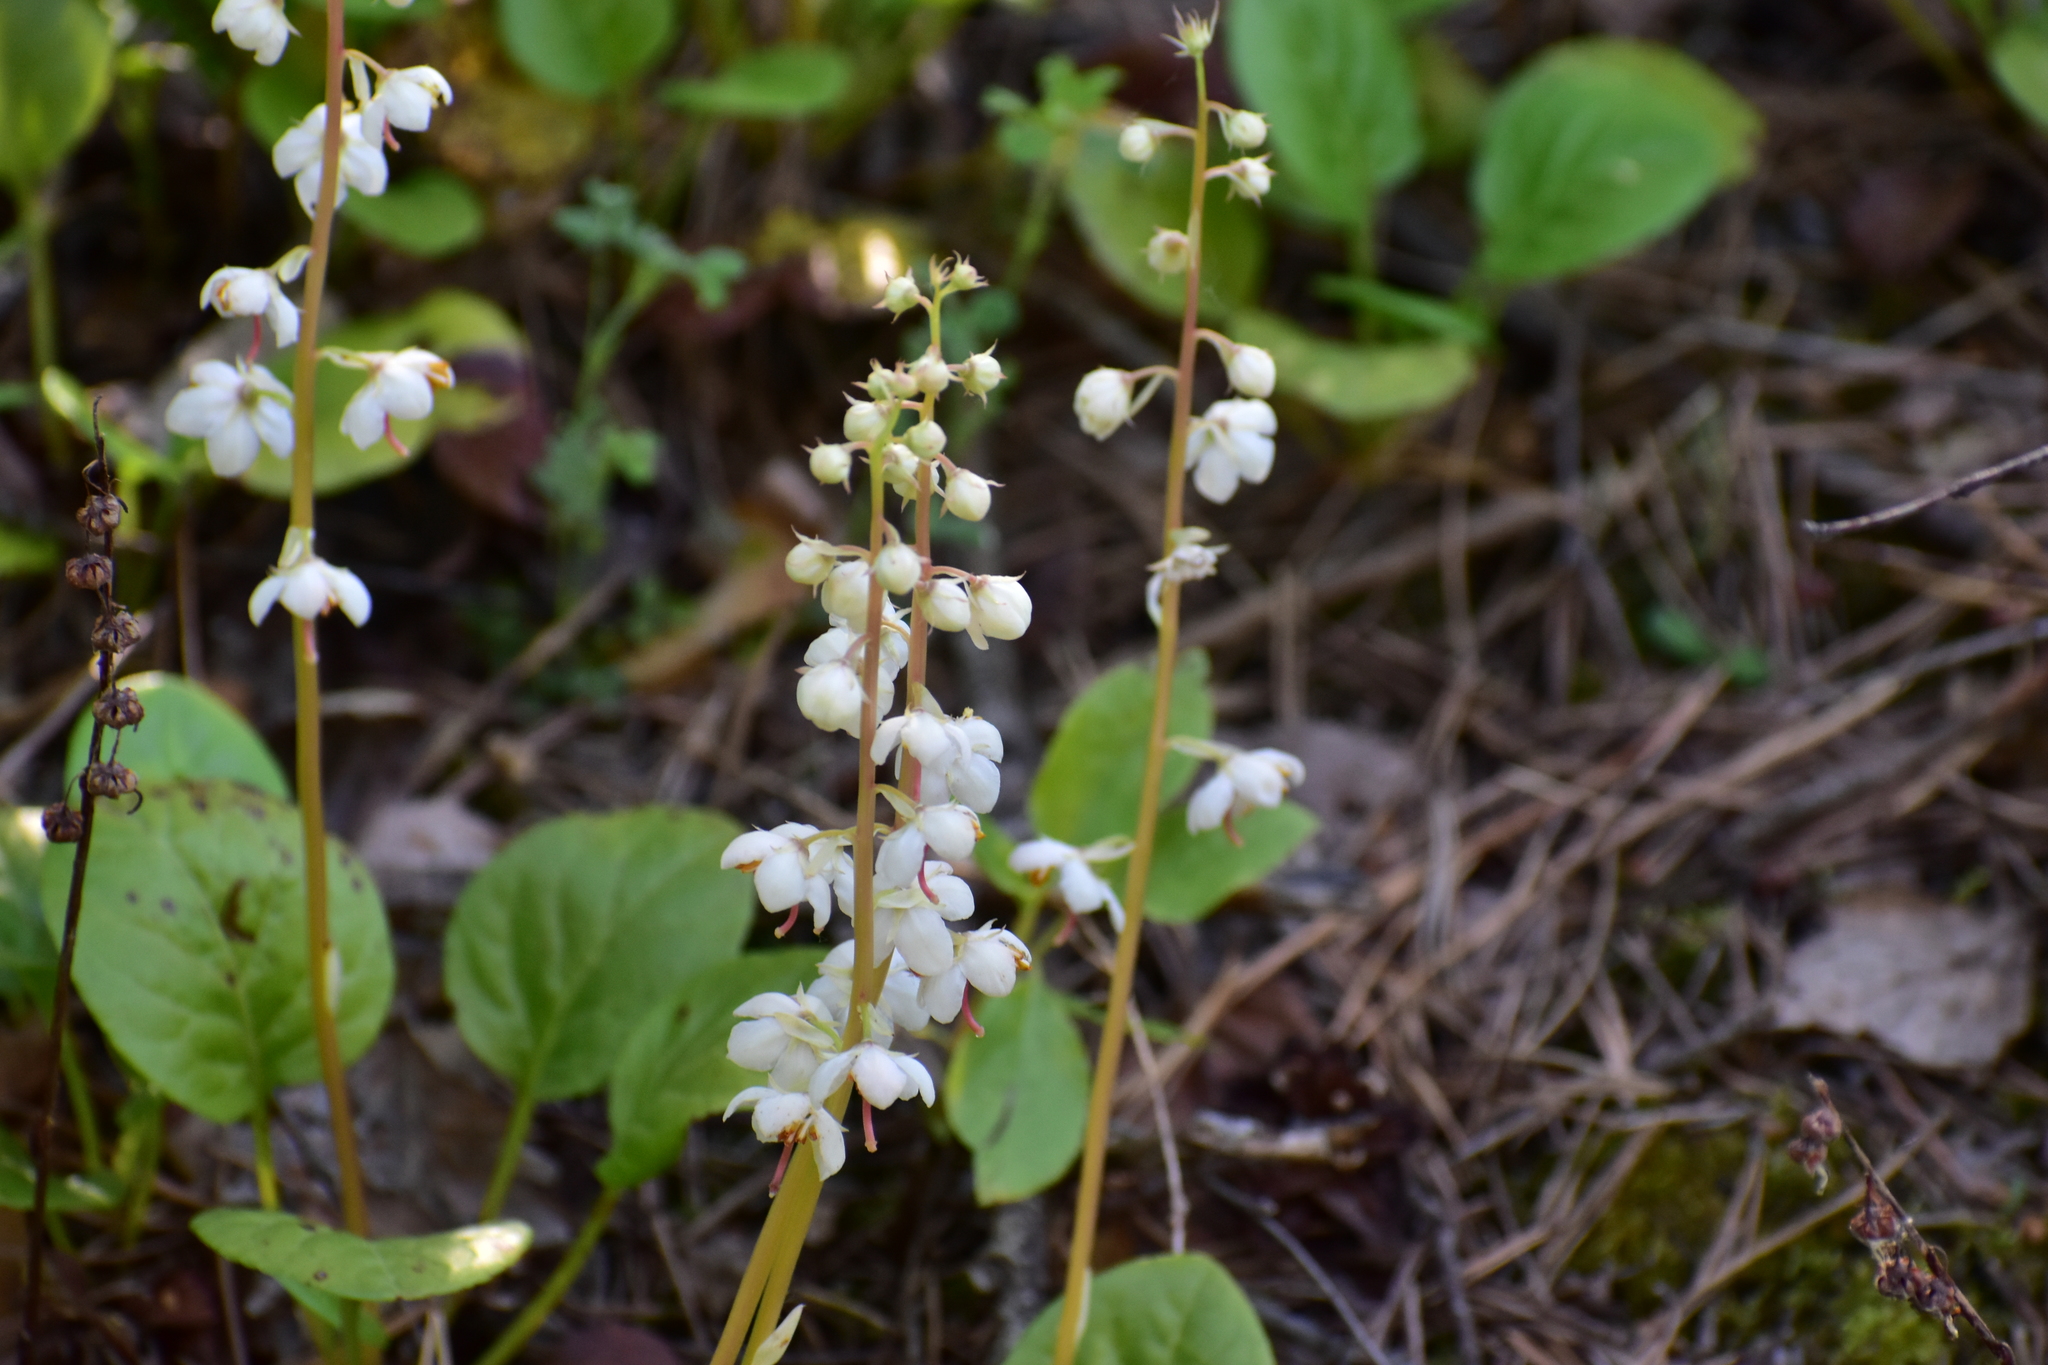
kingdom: Plantae
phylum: Tracheophyta
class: Magnoliopsida
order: Ericales
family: Ericaceae
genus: Pyrola
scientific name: Pyrola rotundifolia
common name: Round-leaved wintergreen
